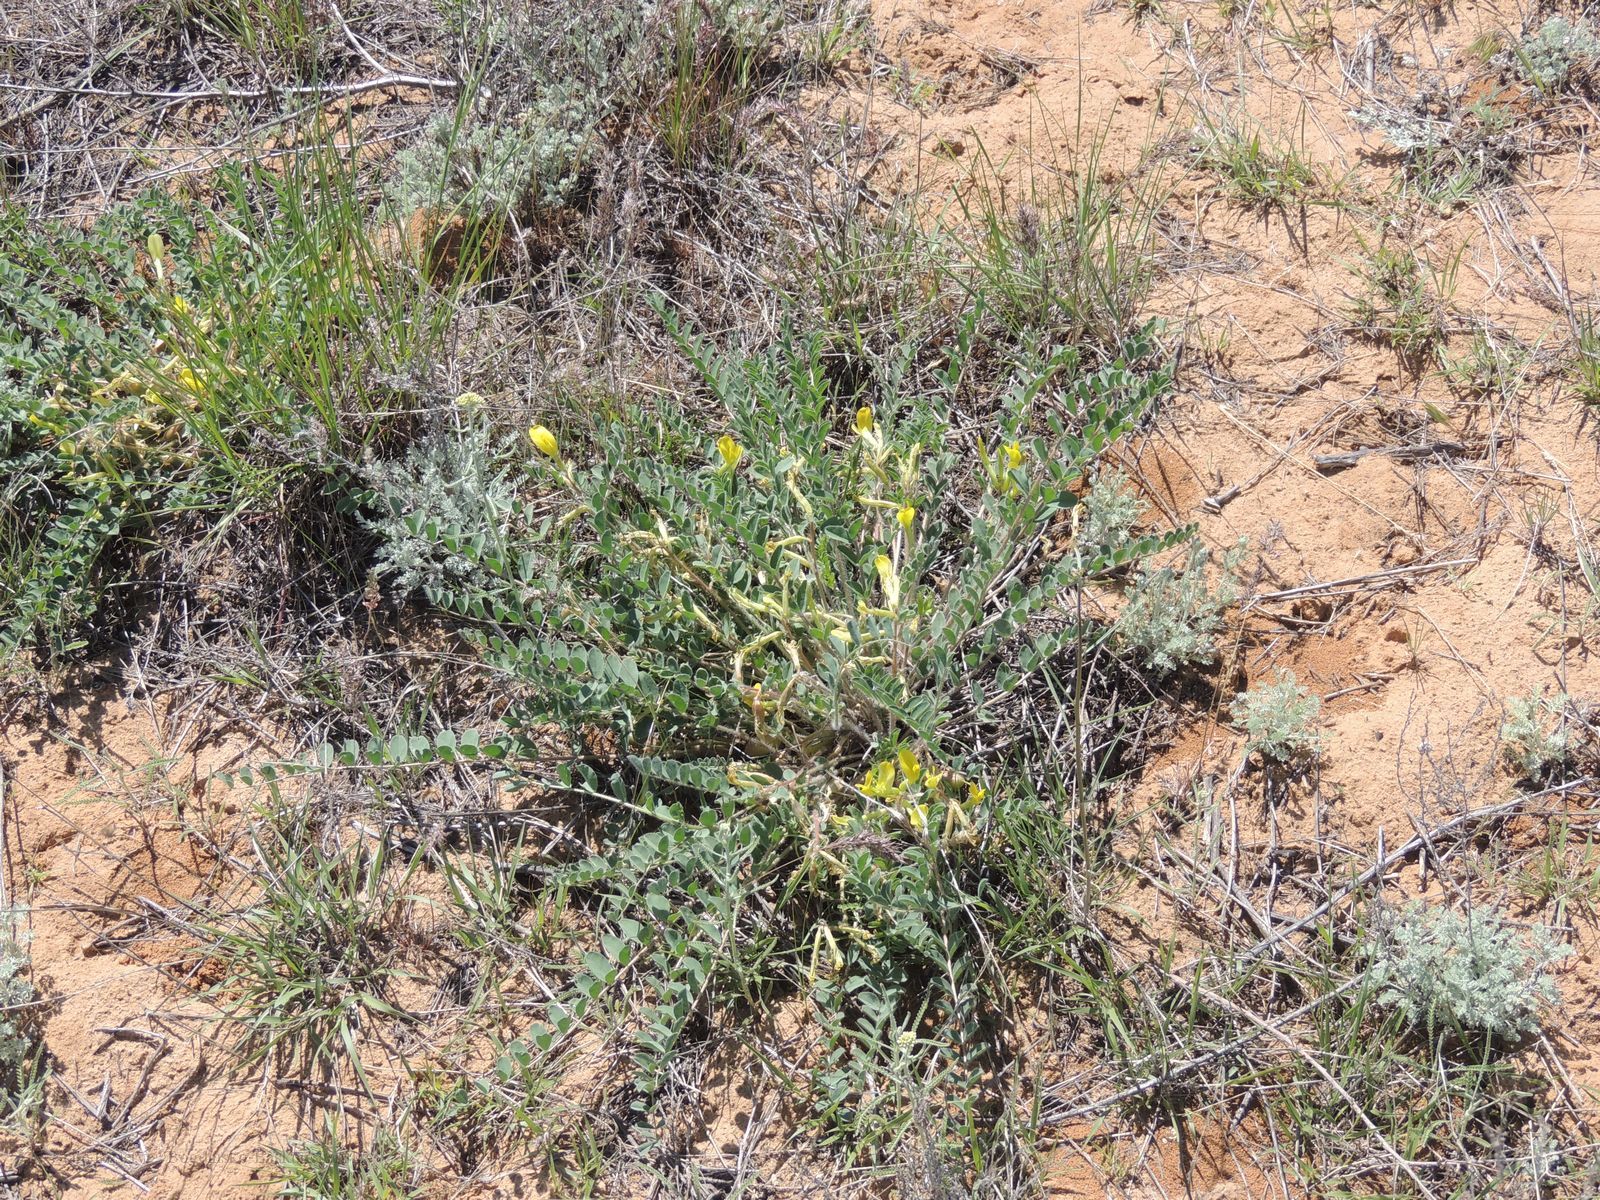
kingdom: Plantae
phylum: Tracheophyta
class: Magnoliopsida
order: Fabales
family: Fabaceae
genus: Astragalus
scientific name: Astragalus longipetalus
